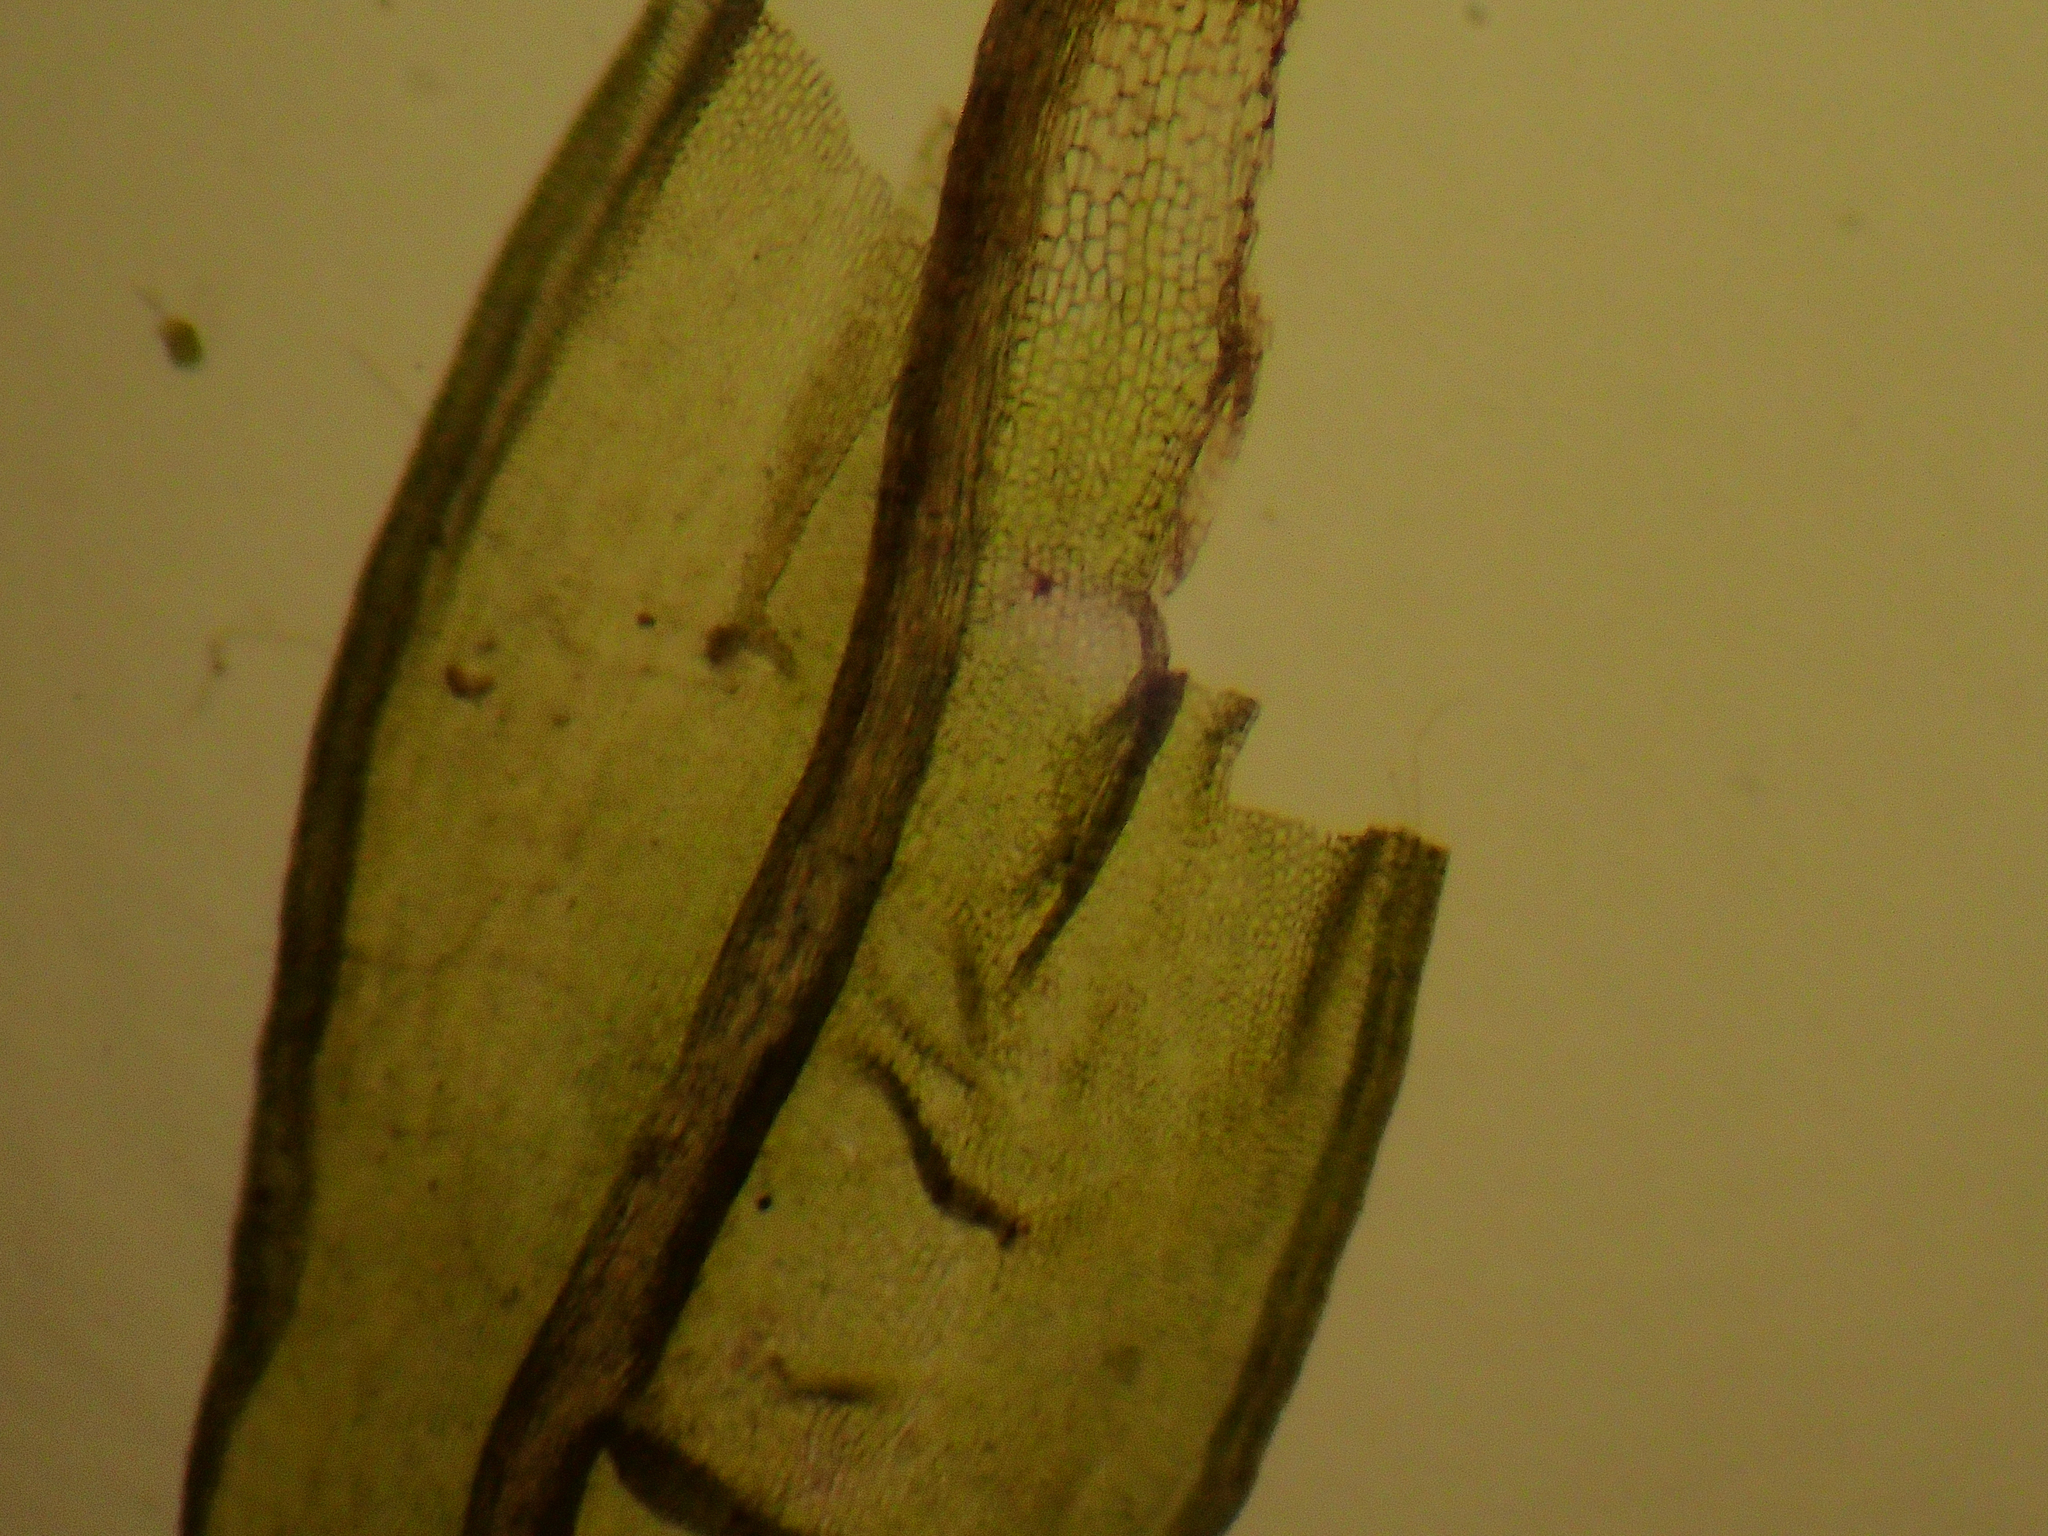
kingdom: Plantae
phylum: Bryophyta
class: Bryopsida
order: Grimmiales
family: Ptychomitriaceae
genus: Ptychomitrium
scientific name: Ptychomitrium gardneri
